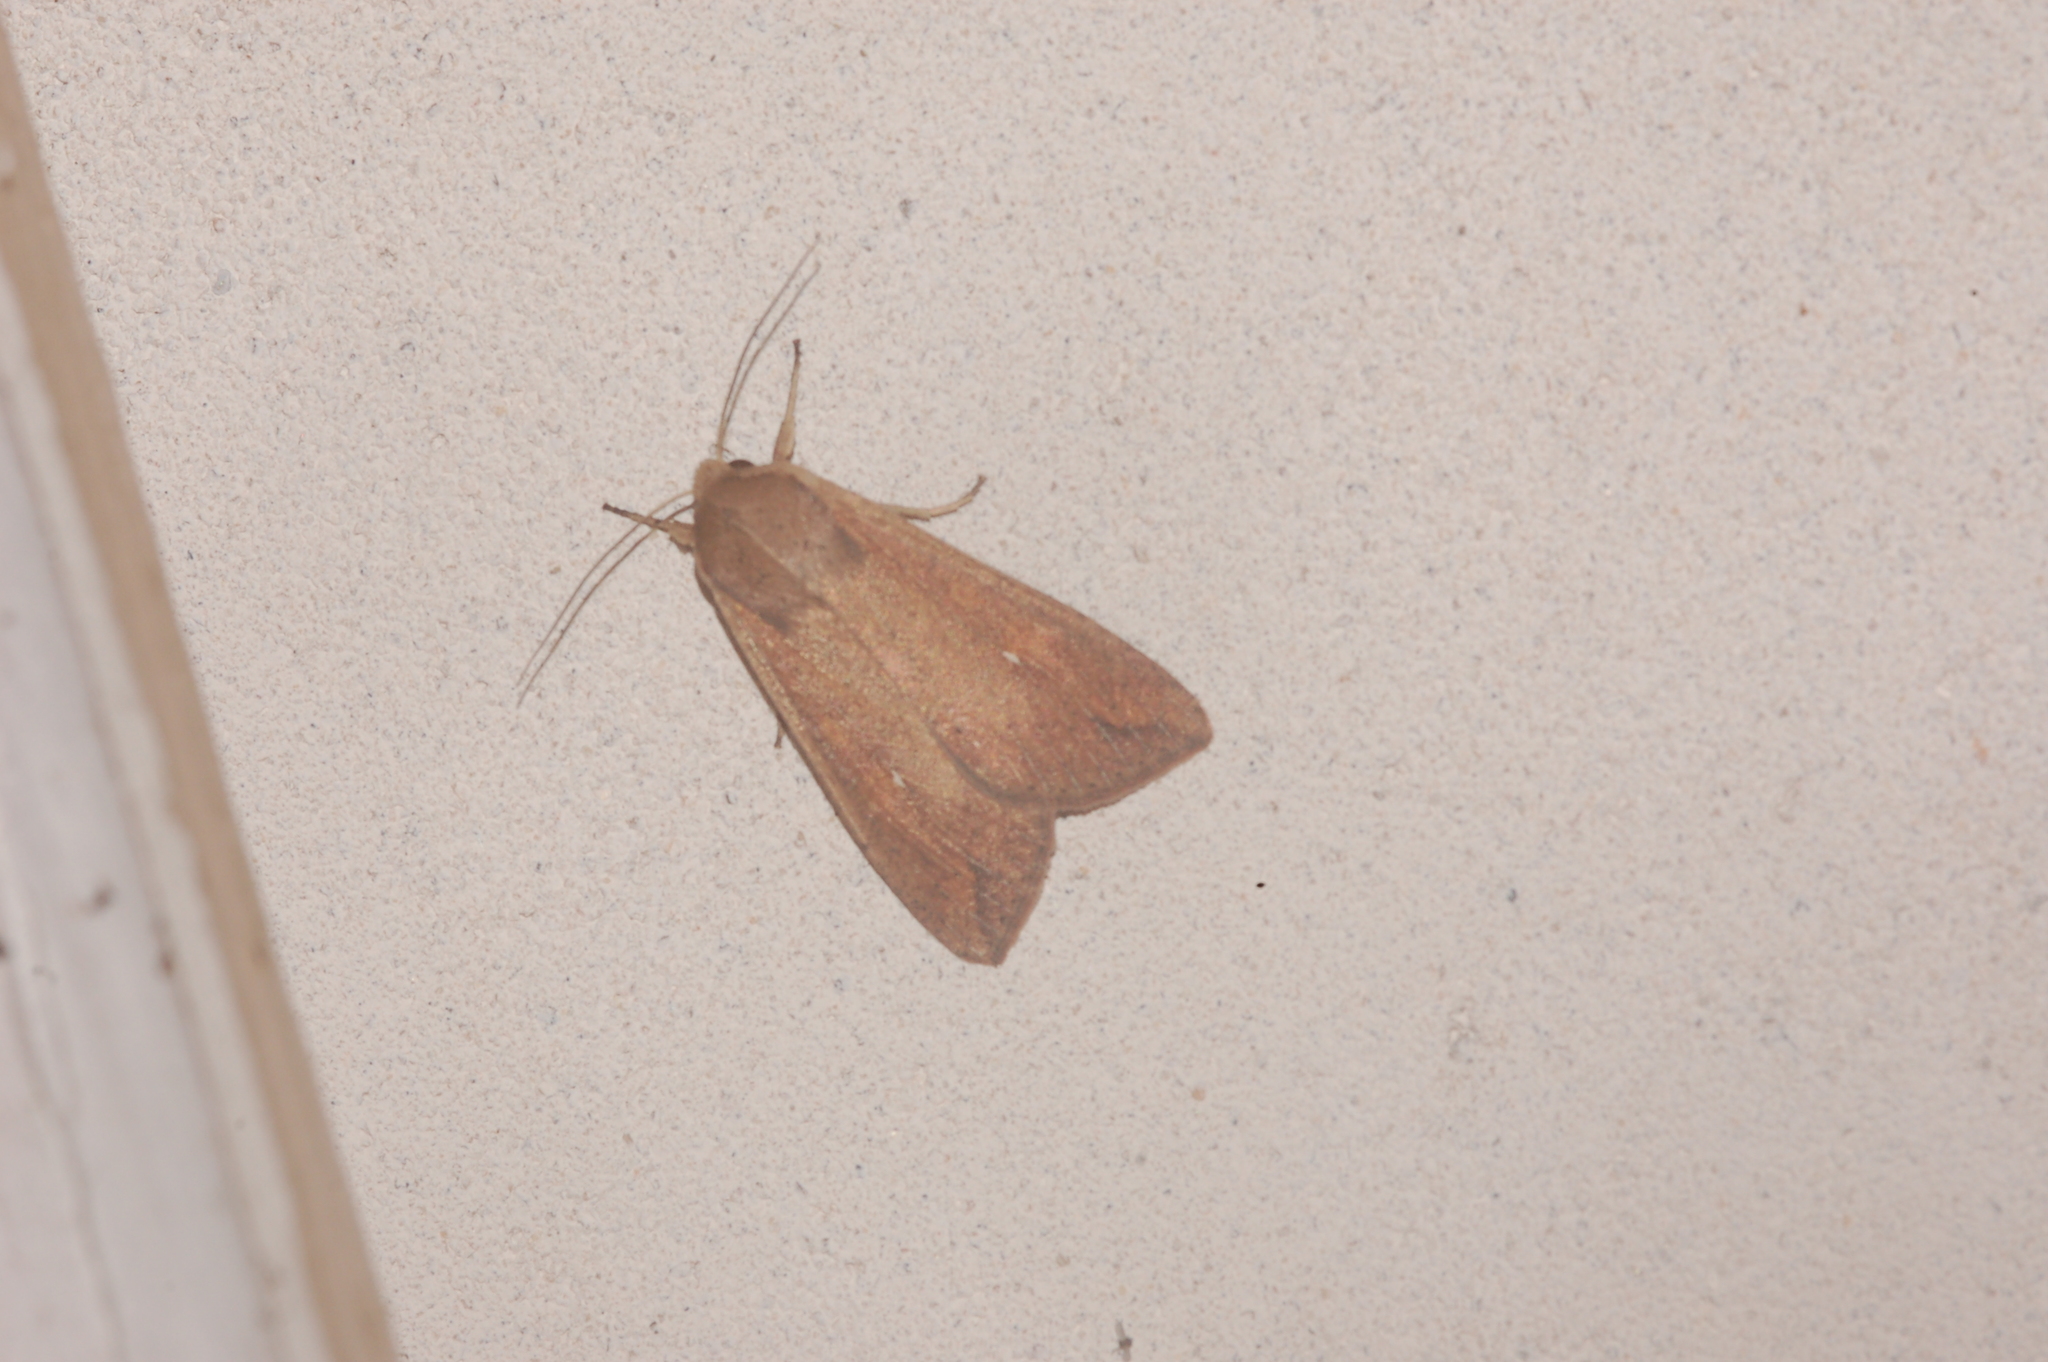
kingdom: Animalia
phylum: Arthropoda
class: Insecta
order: Lepidoptera
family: Noctuidae
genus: Mythimna
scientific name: Mythimna unipuncta
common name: White-speck
